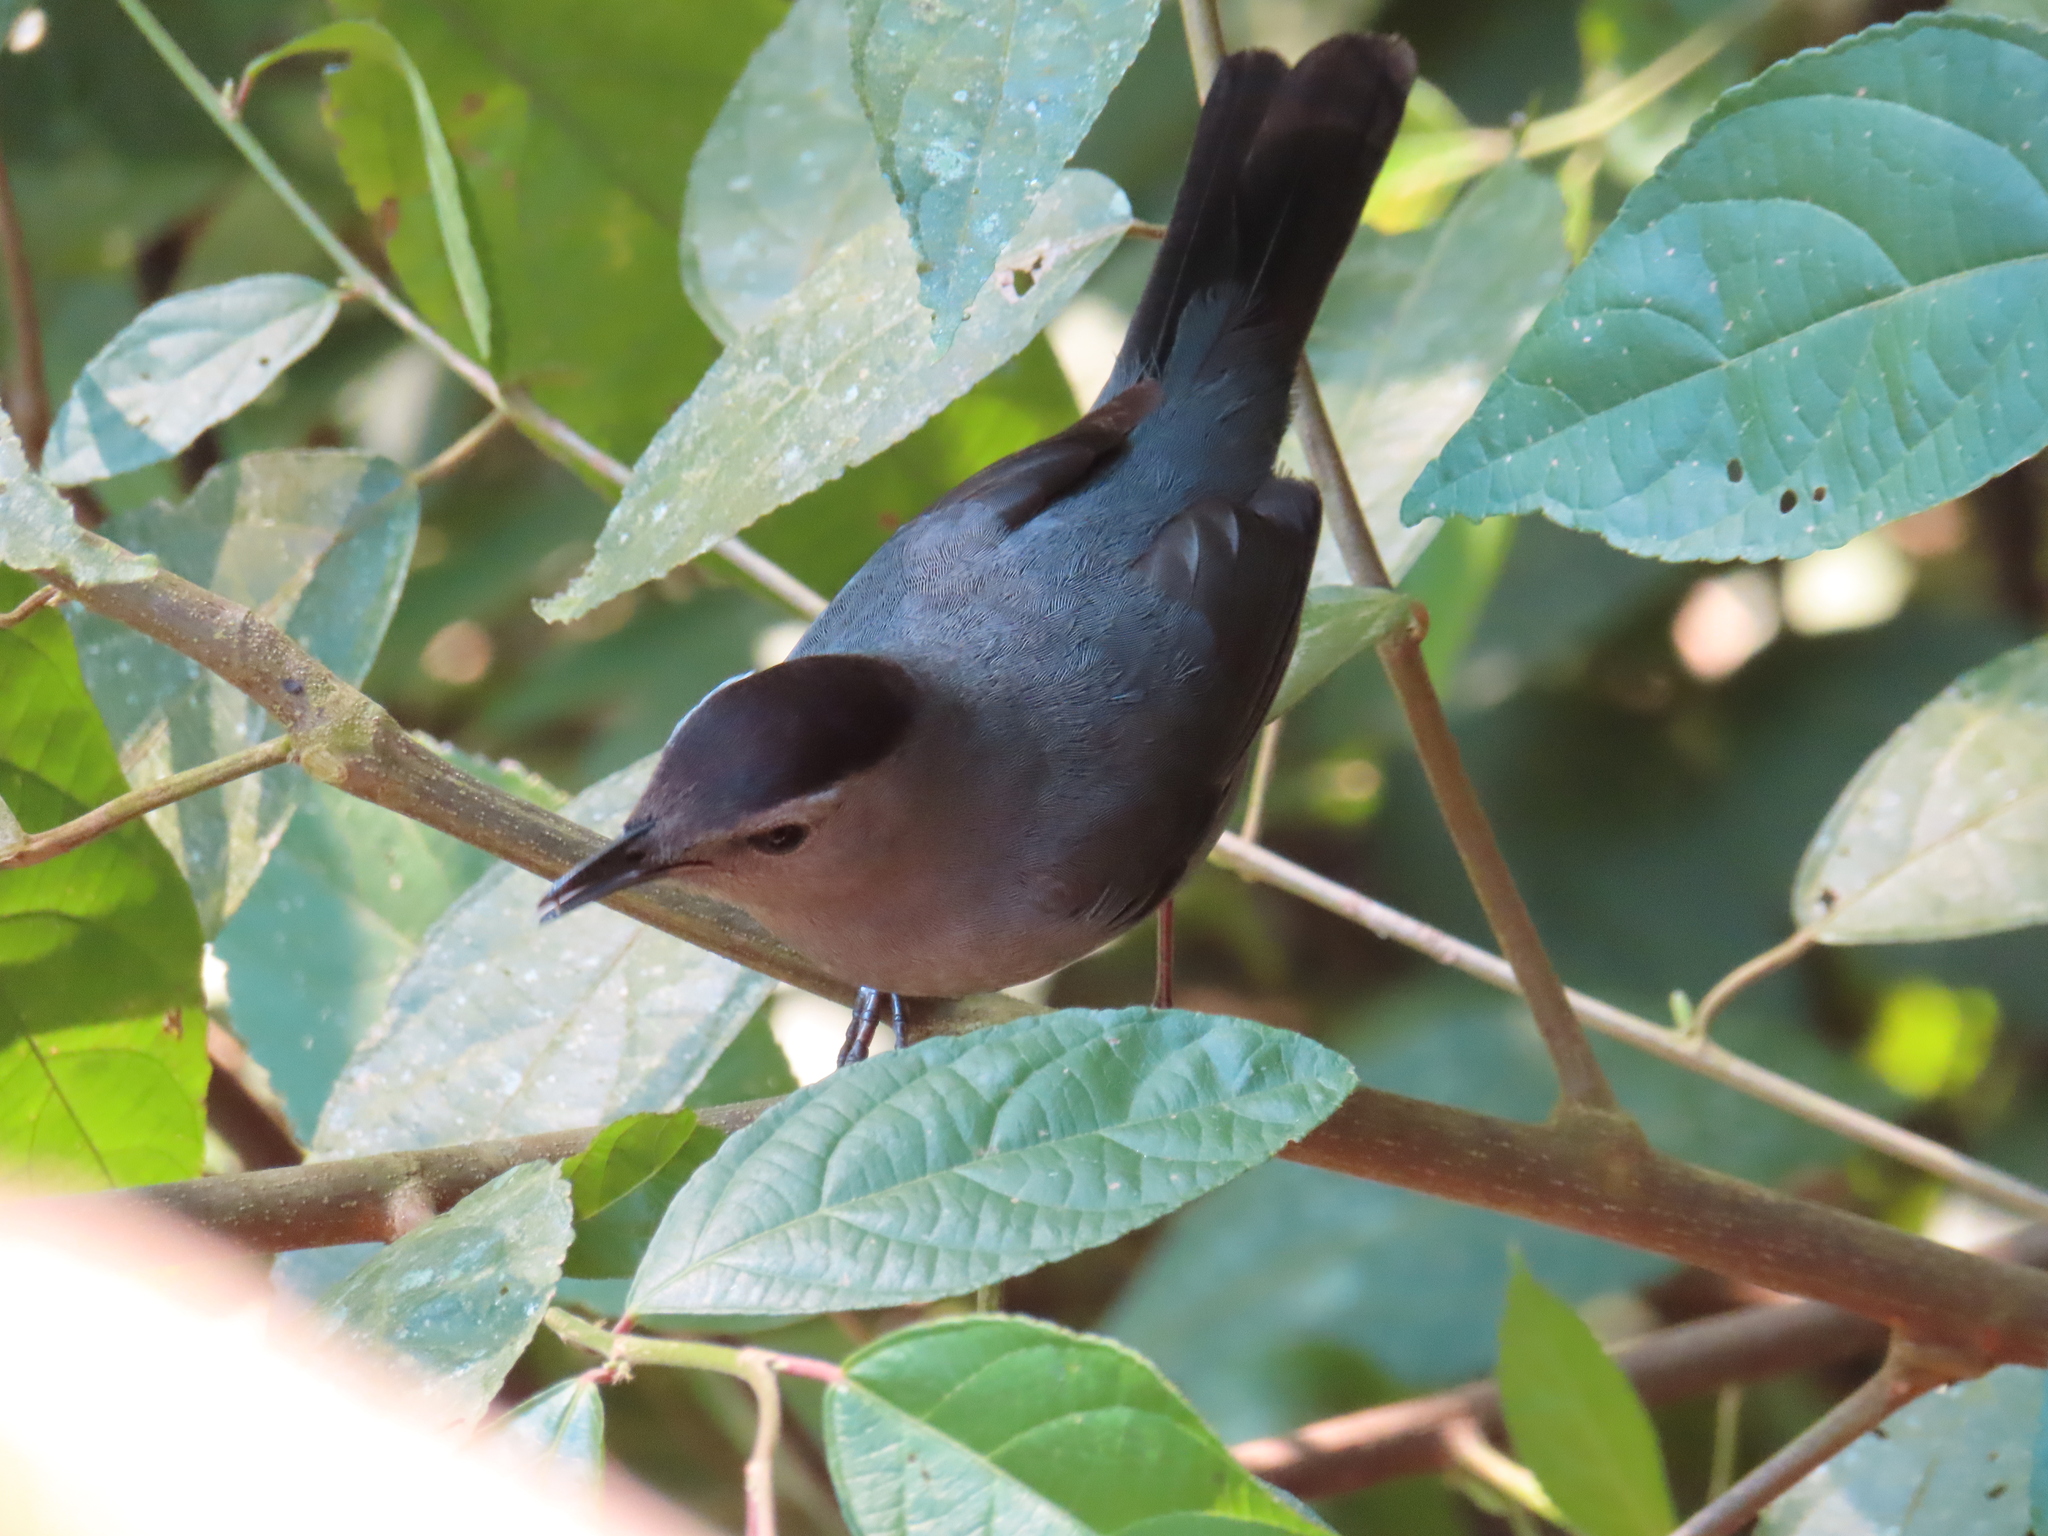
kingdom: Animalia
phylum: Chordata
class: Aves
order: Passeriformes
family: Mimidae
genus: Dumetella
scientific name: Dumetella carolinensis
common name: Gray catbird
